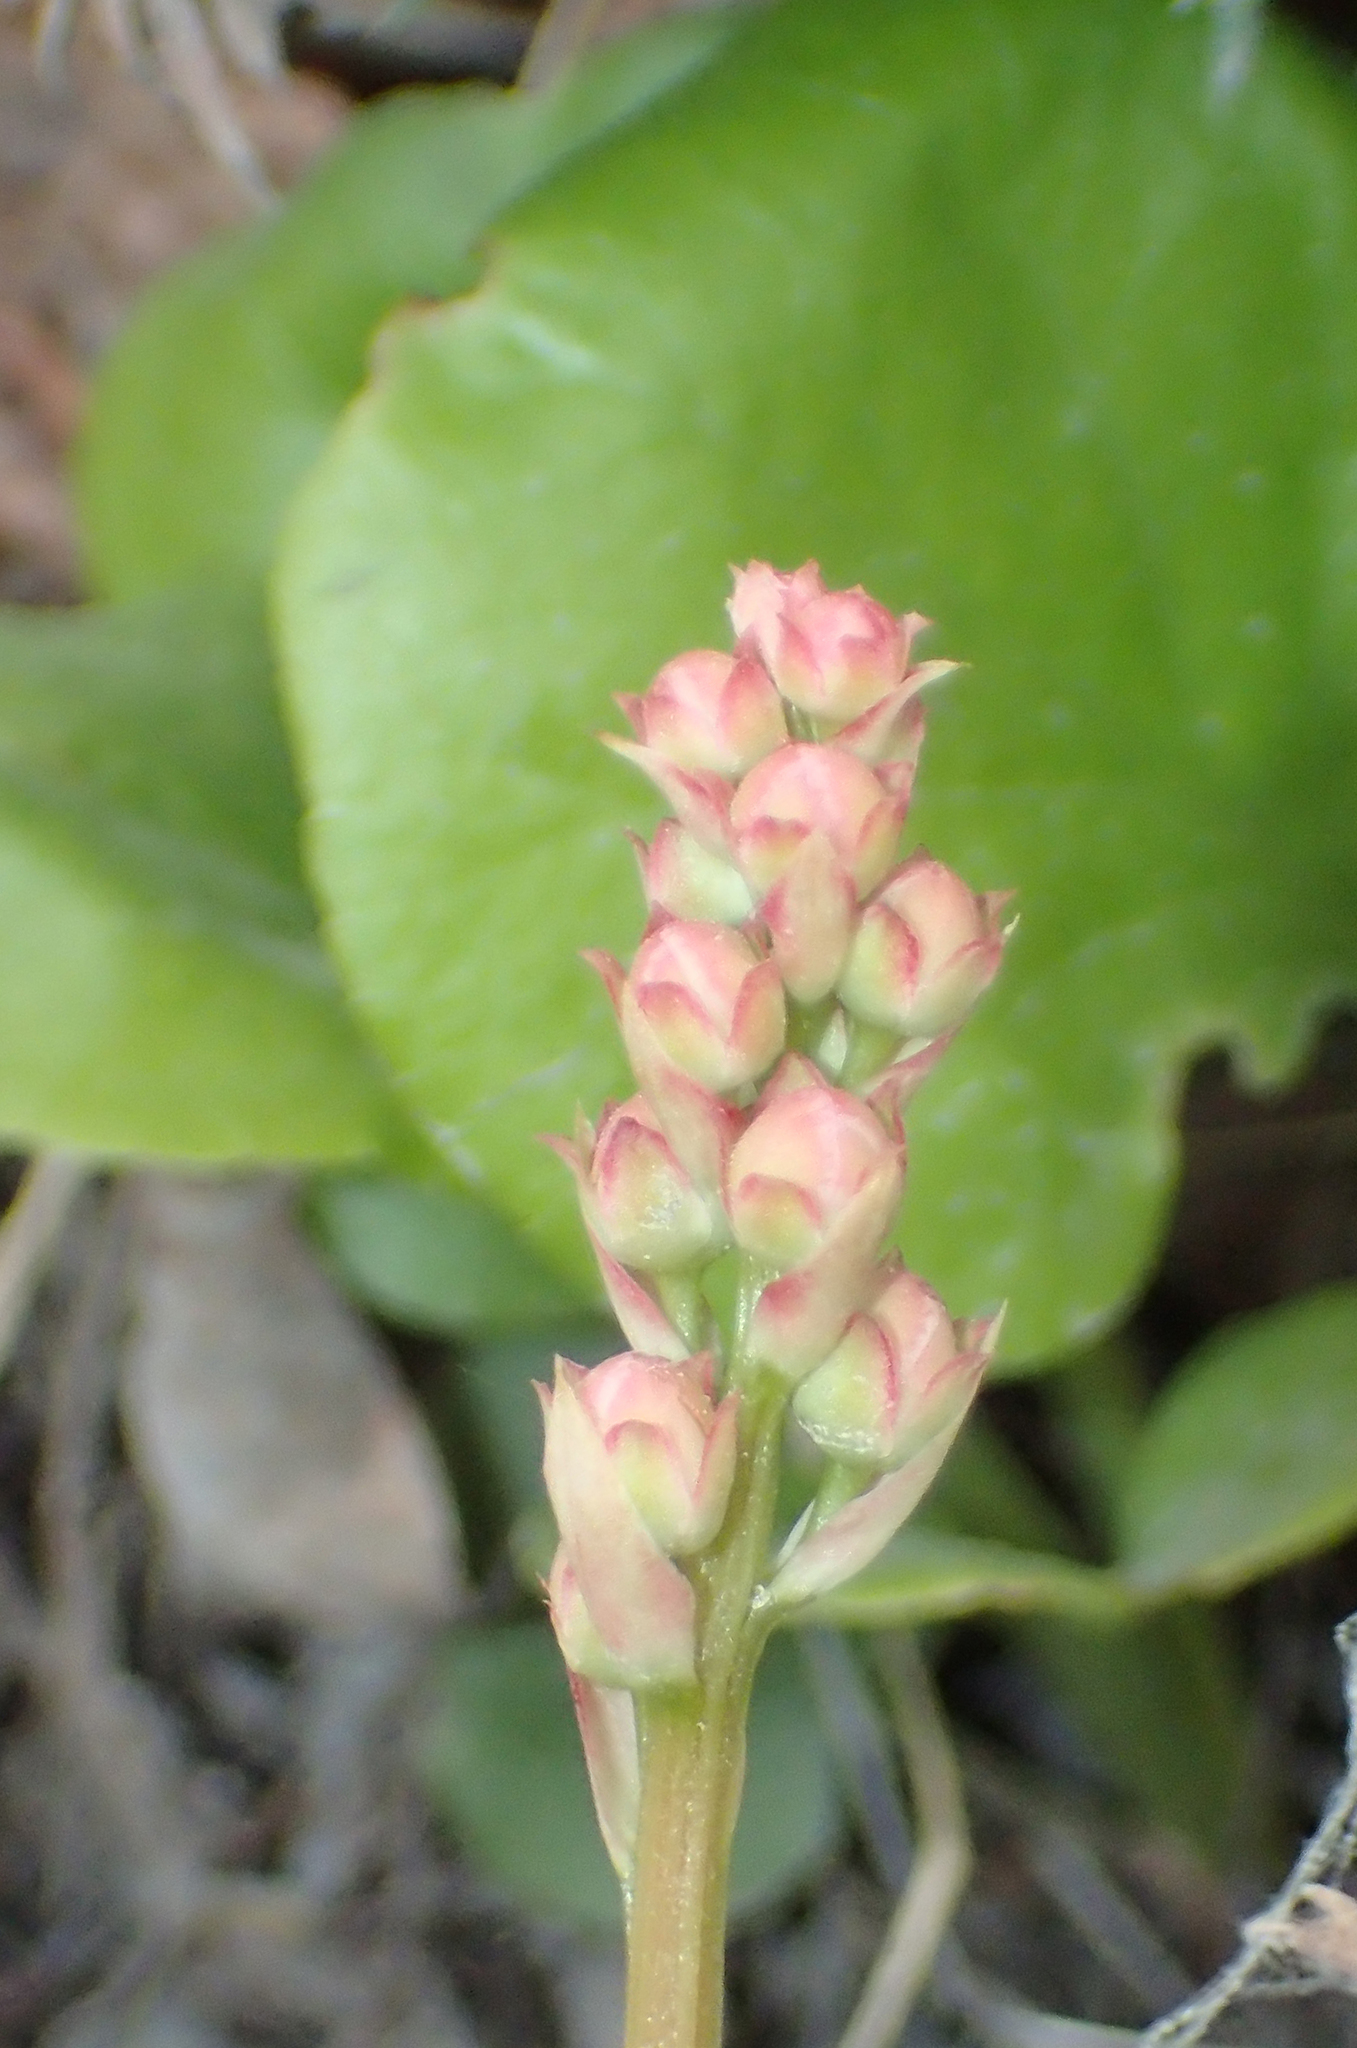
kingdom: Plantae
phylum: Tracheophyta
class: Magnoliopsida
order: Ericales
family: Ericaceae
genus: Pyrola
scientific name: Pyrola asarifolia
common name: Bog wintergreen
